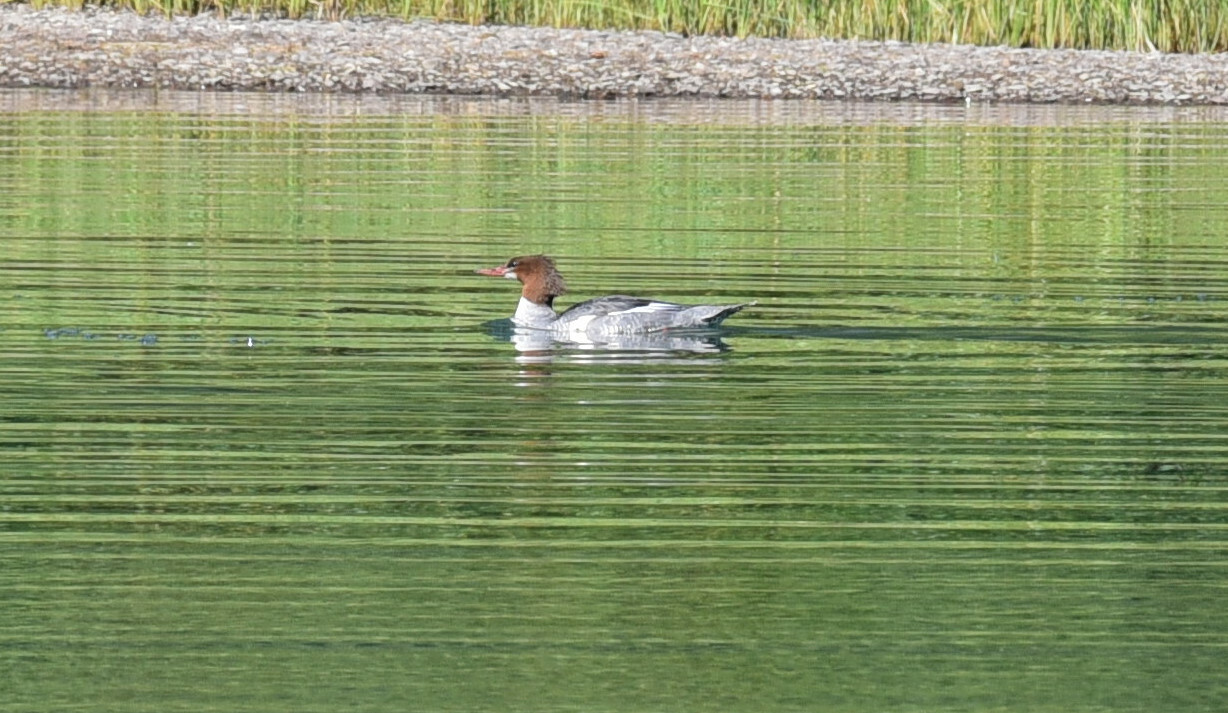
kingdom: Animalia
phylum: Chordata
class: Aves
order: Anseriformes
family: Anatidae
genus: Mergus
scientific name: Mergus merganser
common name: Common merganser
